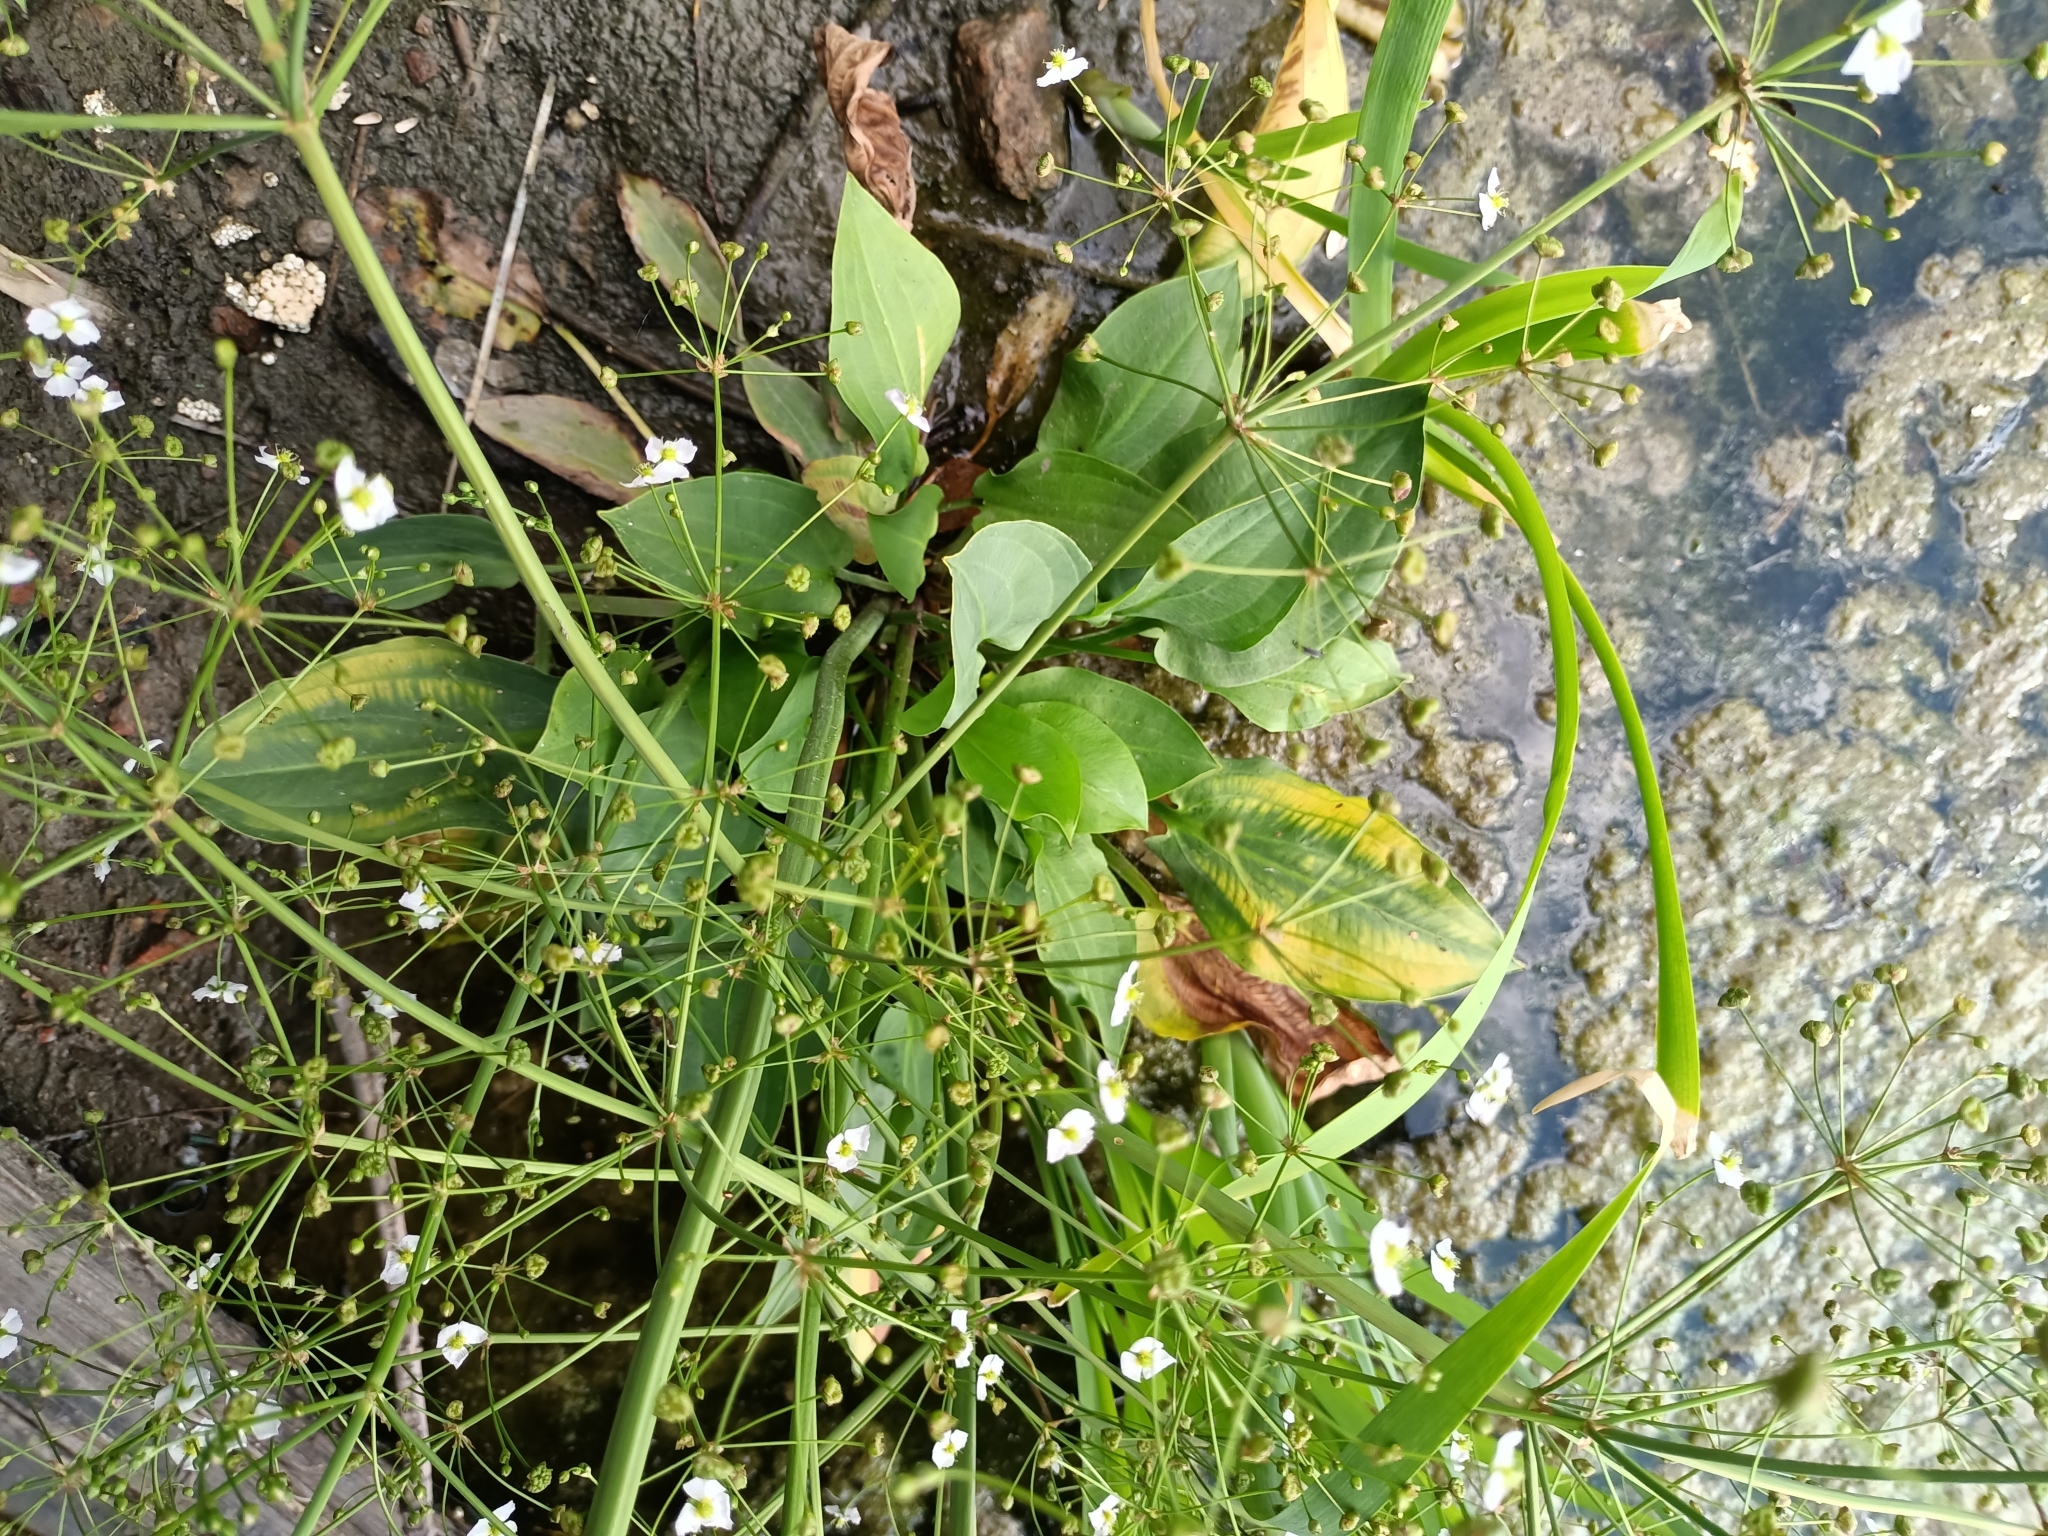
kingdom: Plantae
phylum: Tracheophyta
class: Liliopsida
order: Alismatales
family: Alismataceae
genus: Alisma
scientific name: Alisma plantago-aquatica
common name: Water-plantain
